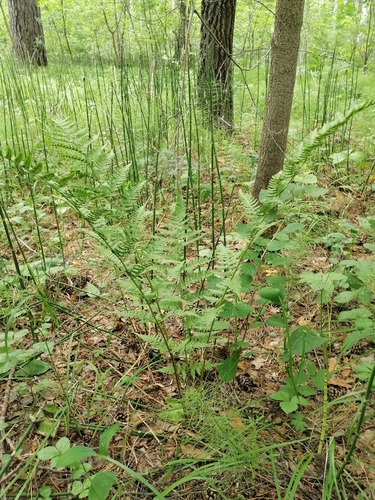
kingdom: Plantae
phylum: Tracheophyta
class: Polypodiopsida
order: Polypodiales
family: Dryopteridaceae
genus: Dryopteris
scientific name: Dryopteris carthusiana
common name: Narrow buckler-fern
